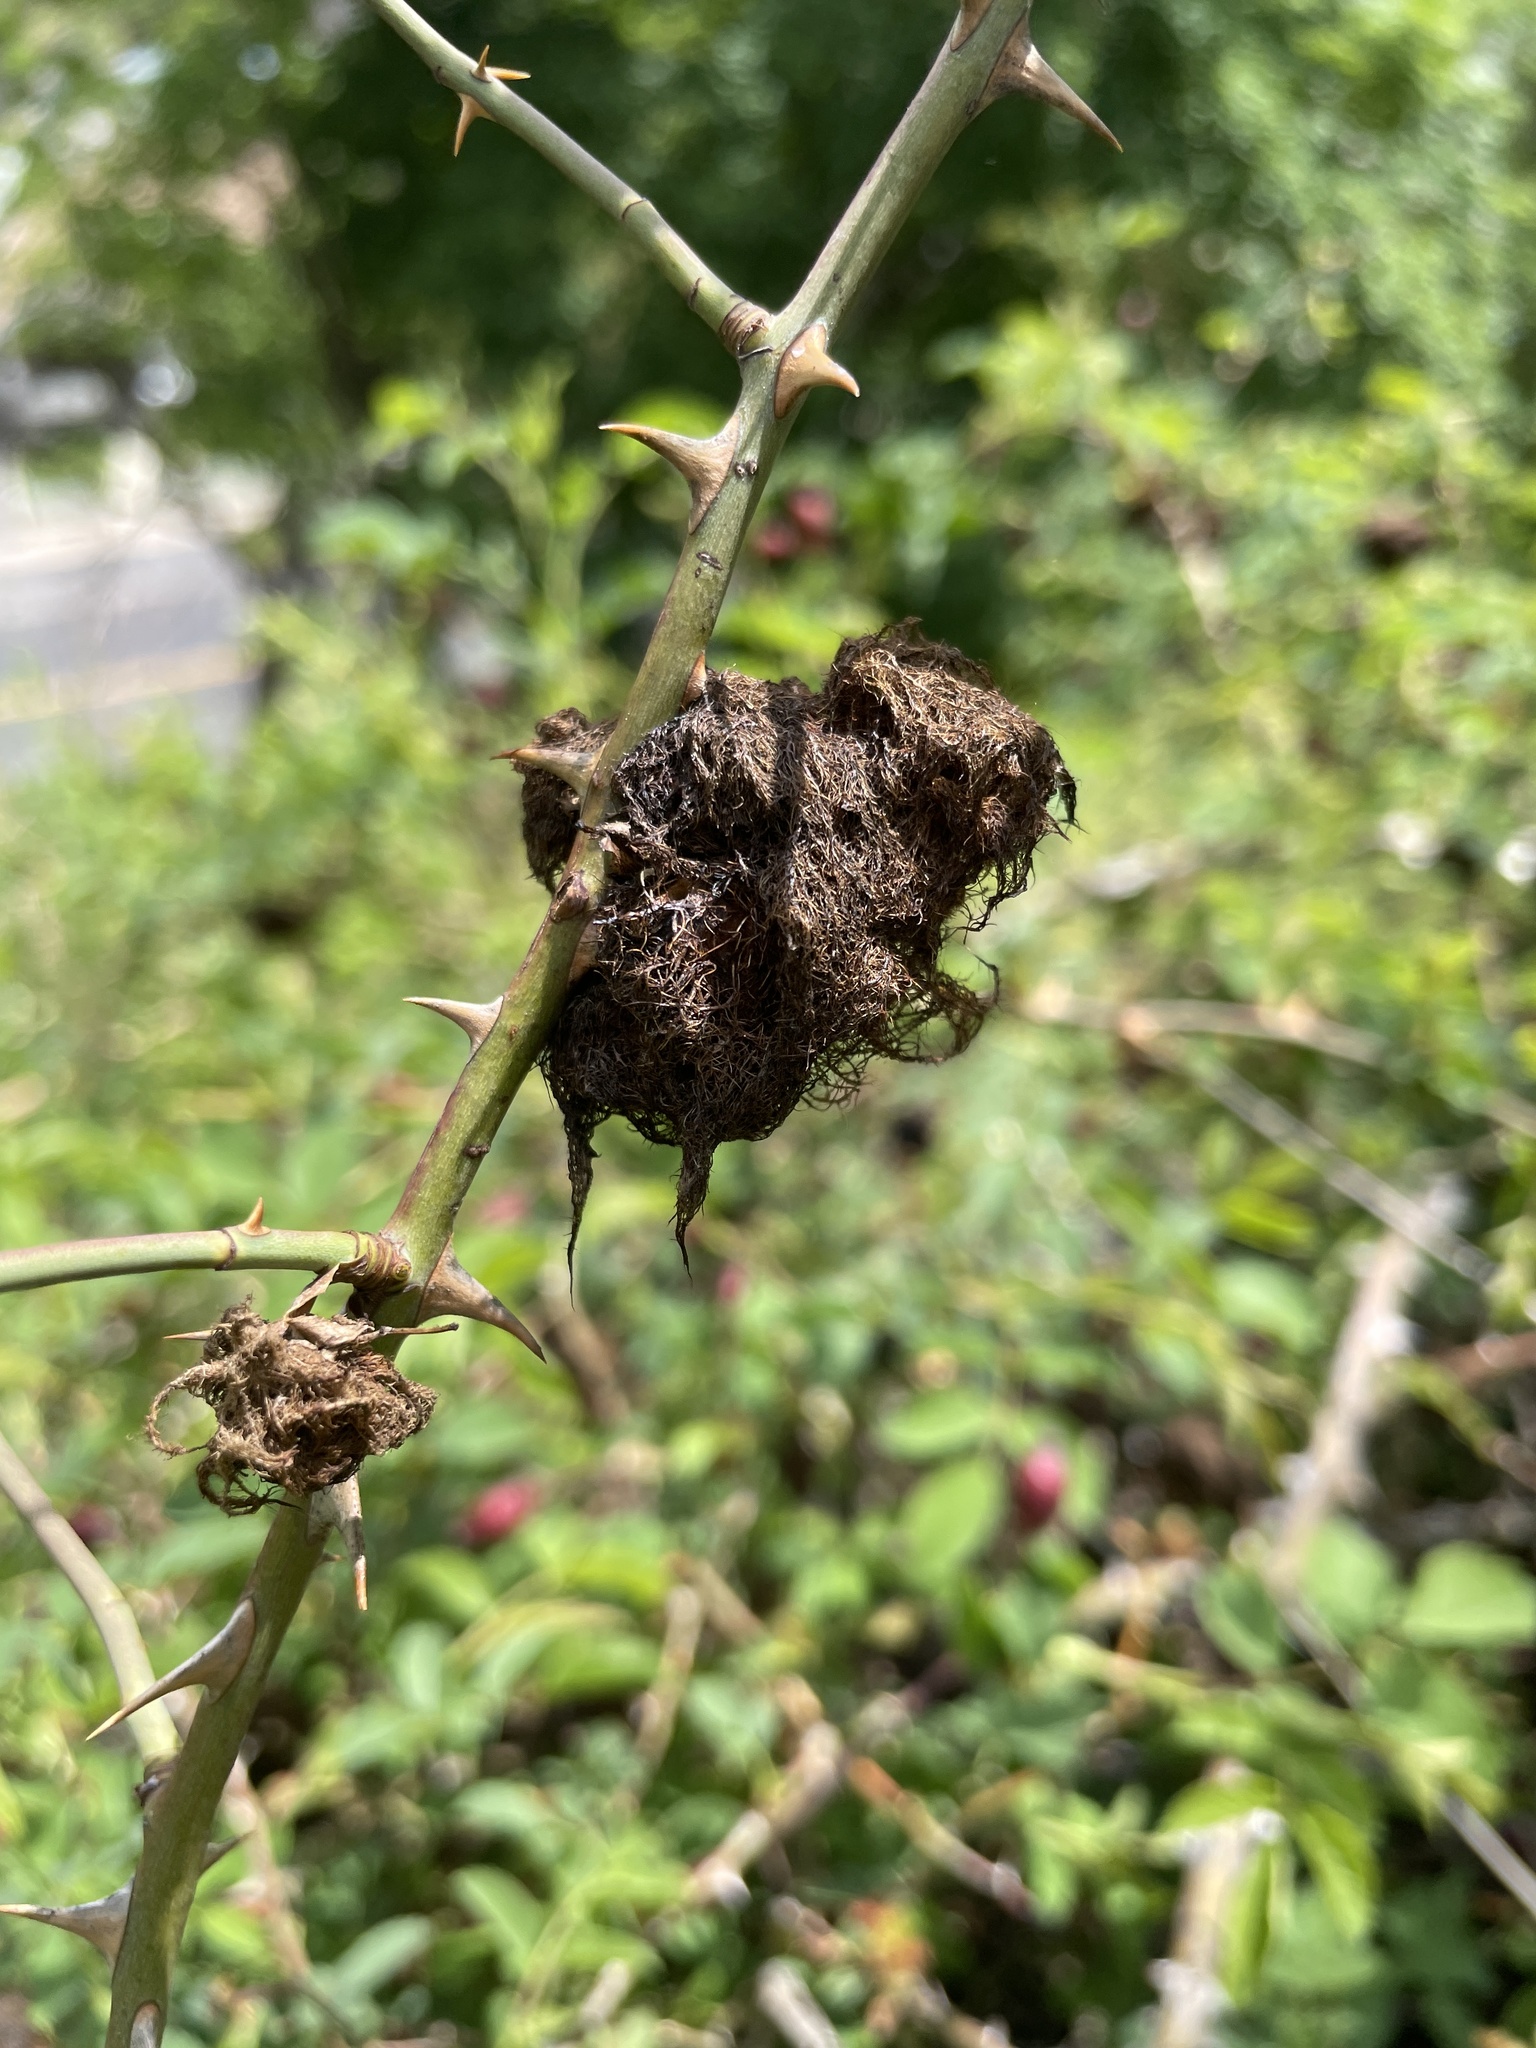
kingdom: Animalia
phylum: Arthropoda
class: Insecta
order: Hymenoptera
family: Cynipidae
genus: Diplolepis
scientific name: Diplolepis rosae
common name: Bedeguar gall
